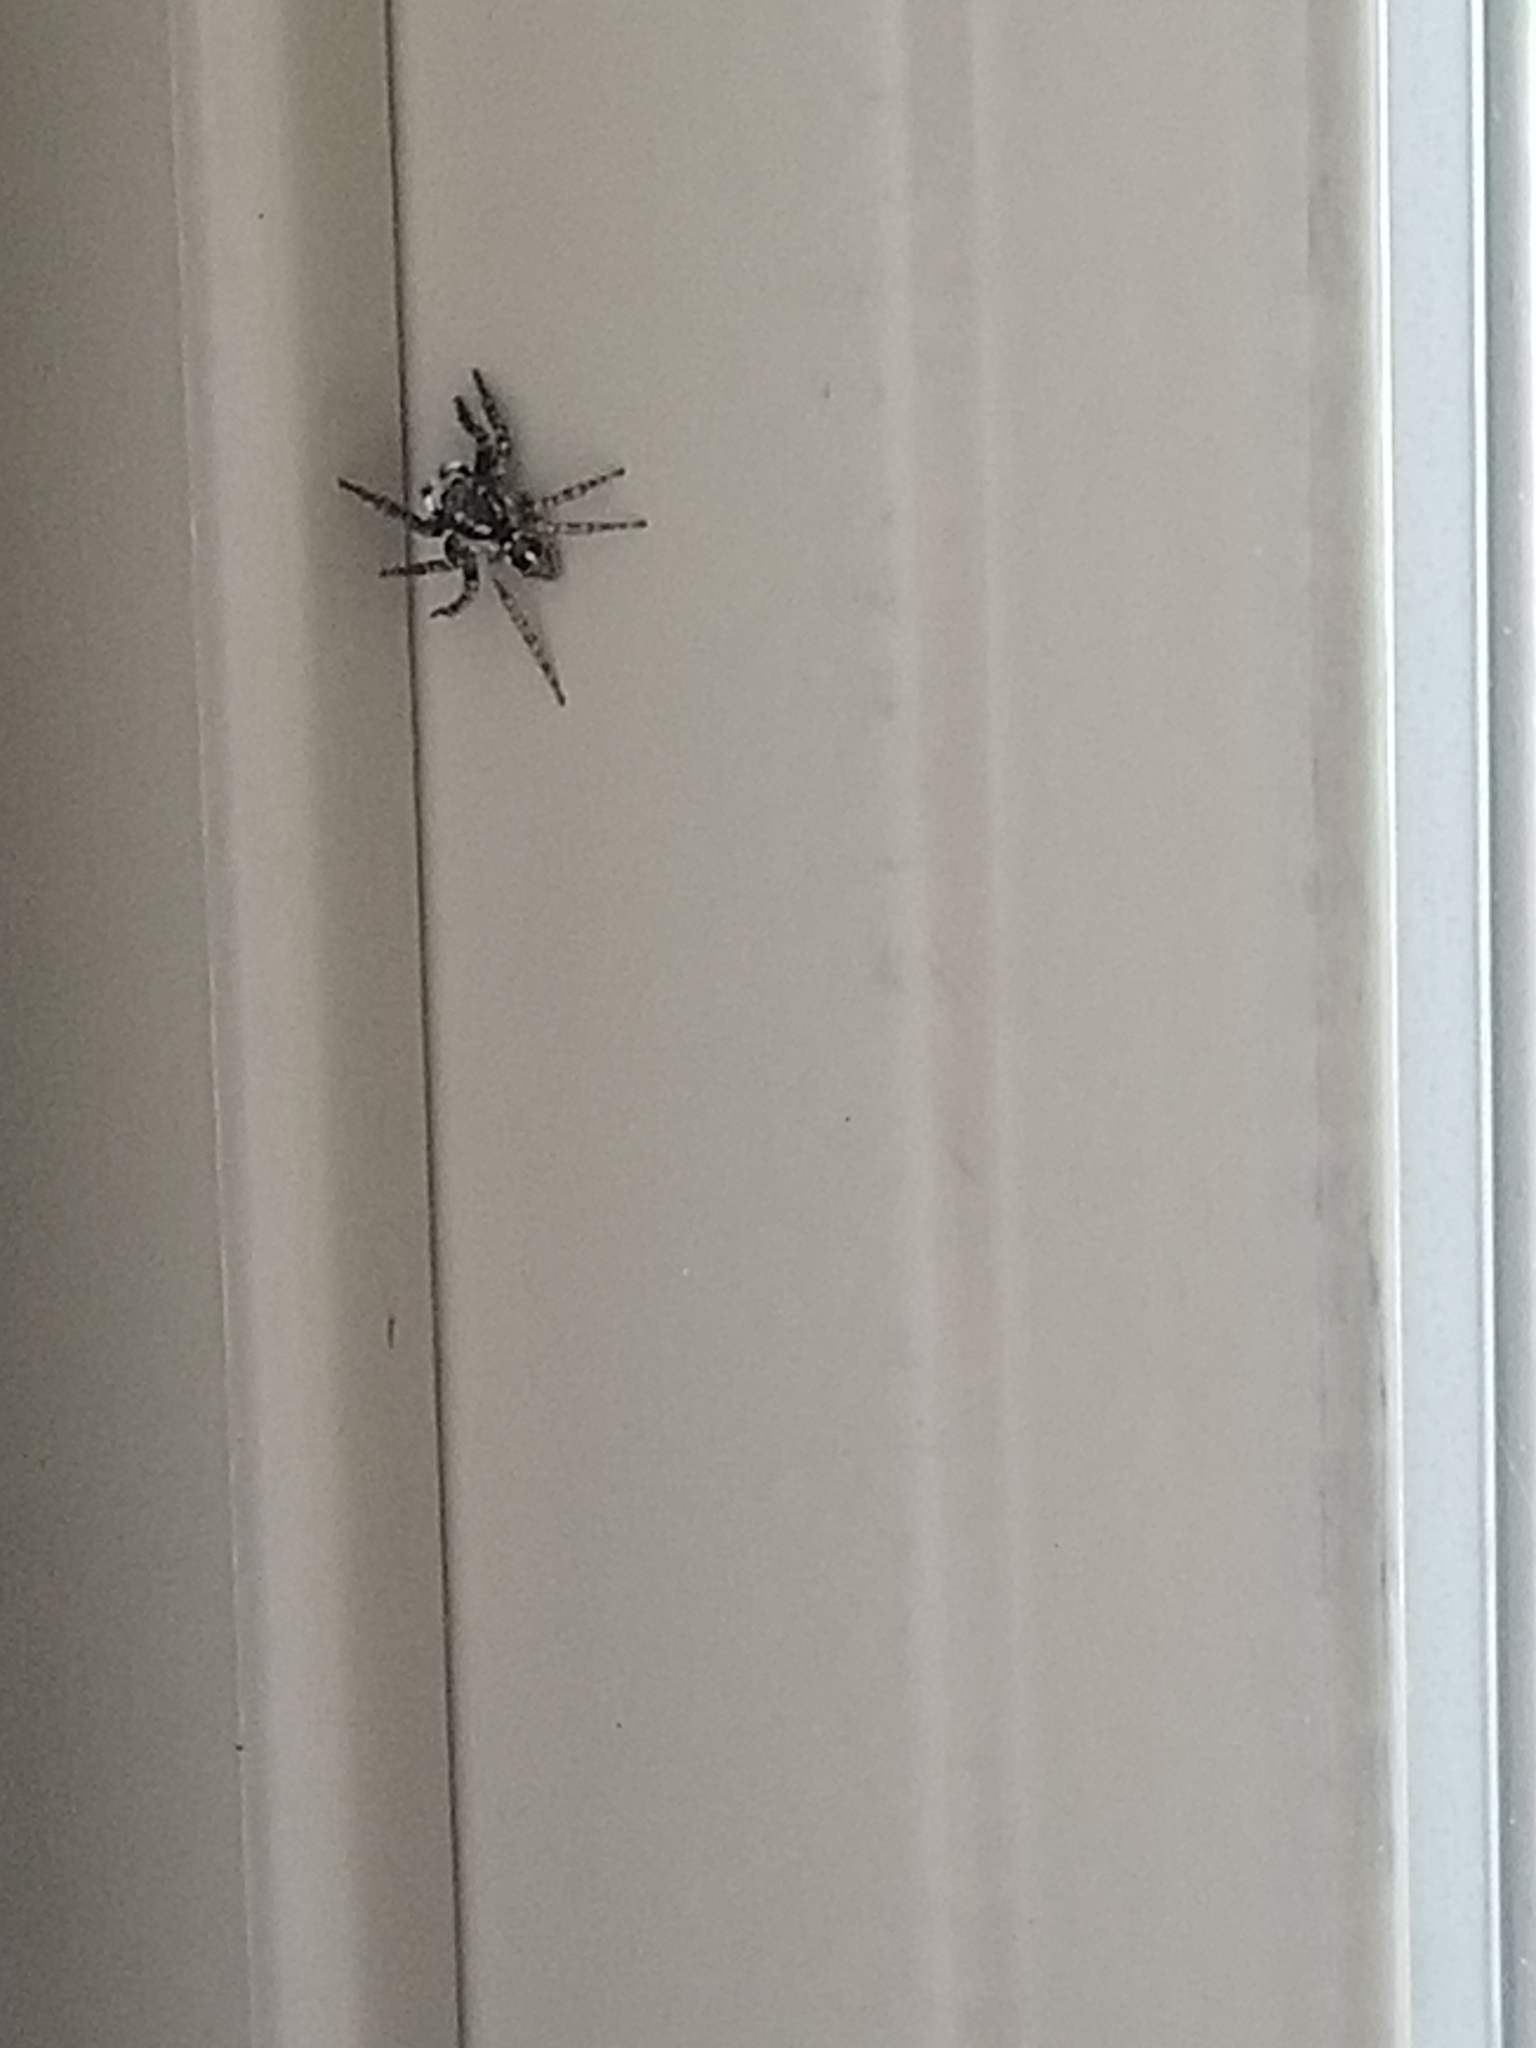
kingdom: Animalia
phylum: Arthropoda
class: Arachnida
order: Araneae
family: Salticidae
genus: Anasaitis
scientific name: Anasaitis canosa
